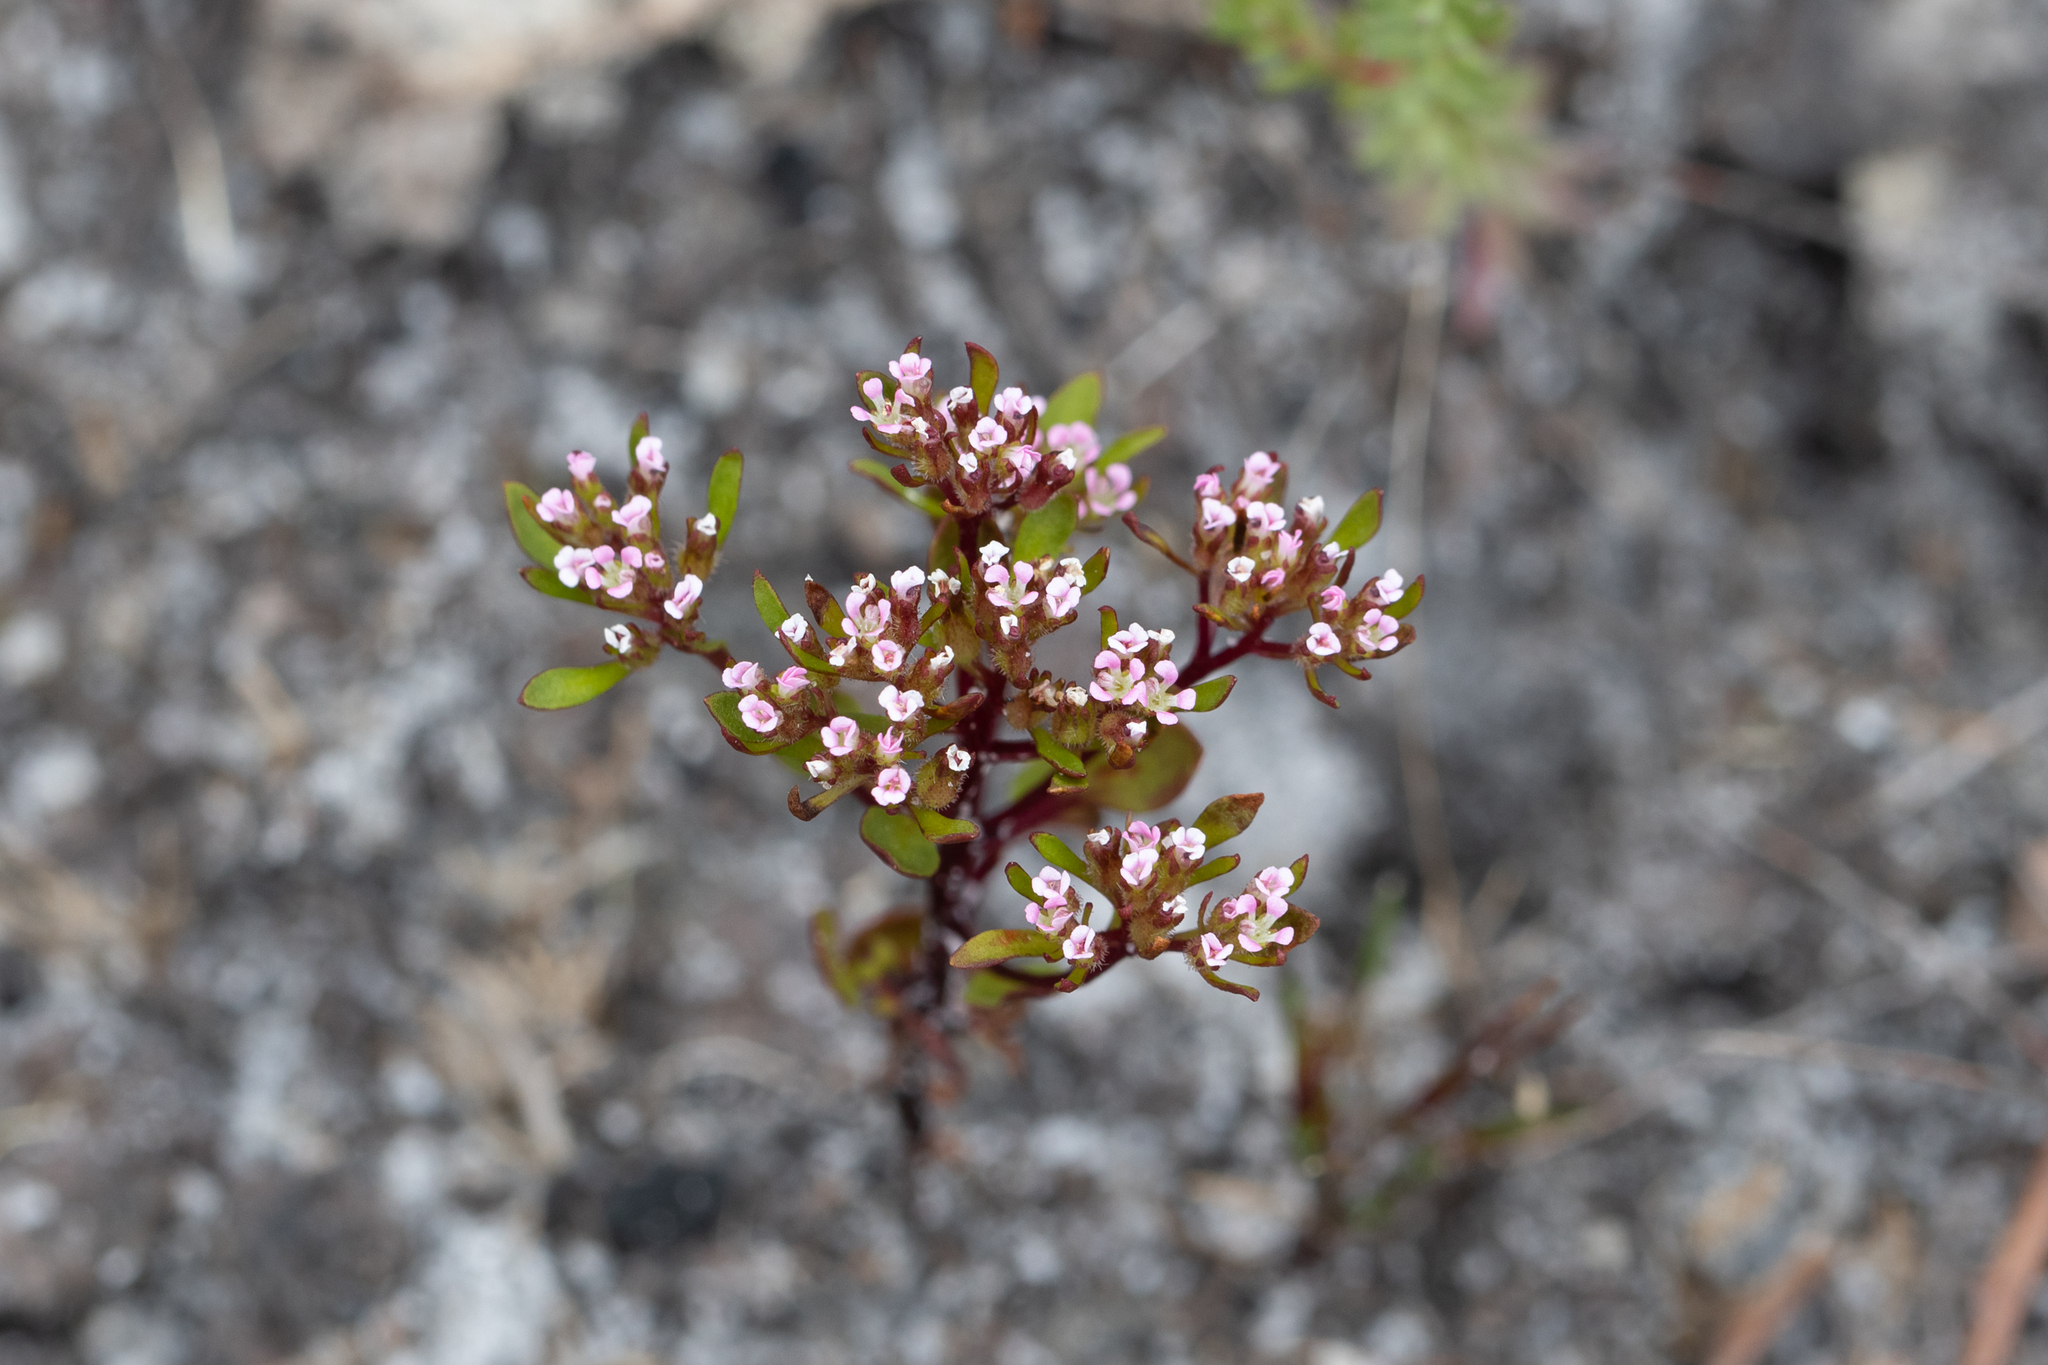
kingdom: Plantae
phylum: Tracheophyta
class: Magnoliopsida
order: Asterales
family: Stylidiaceae
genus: Levenhookia
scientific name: Levenhookia pusilla
